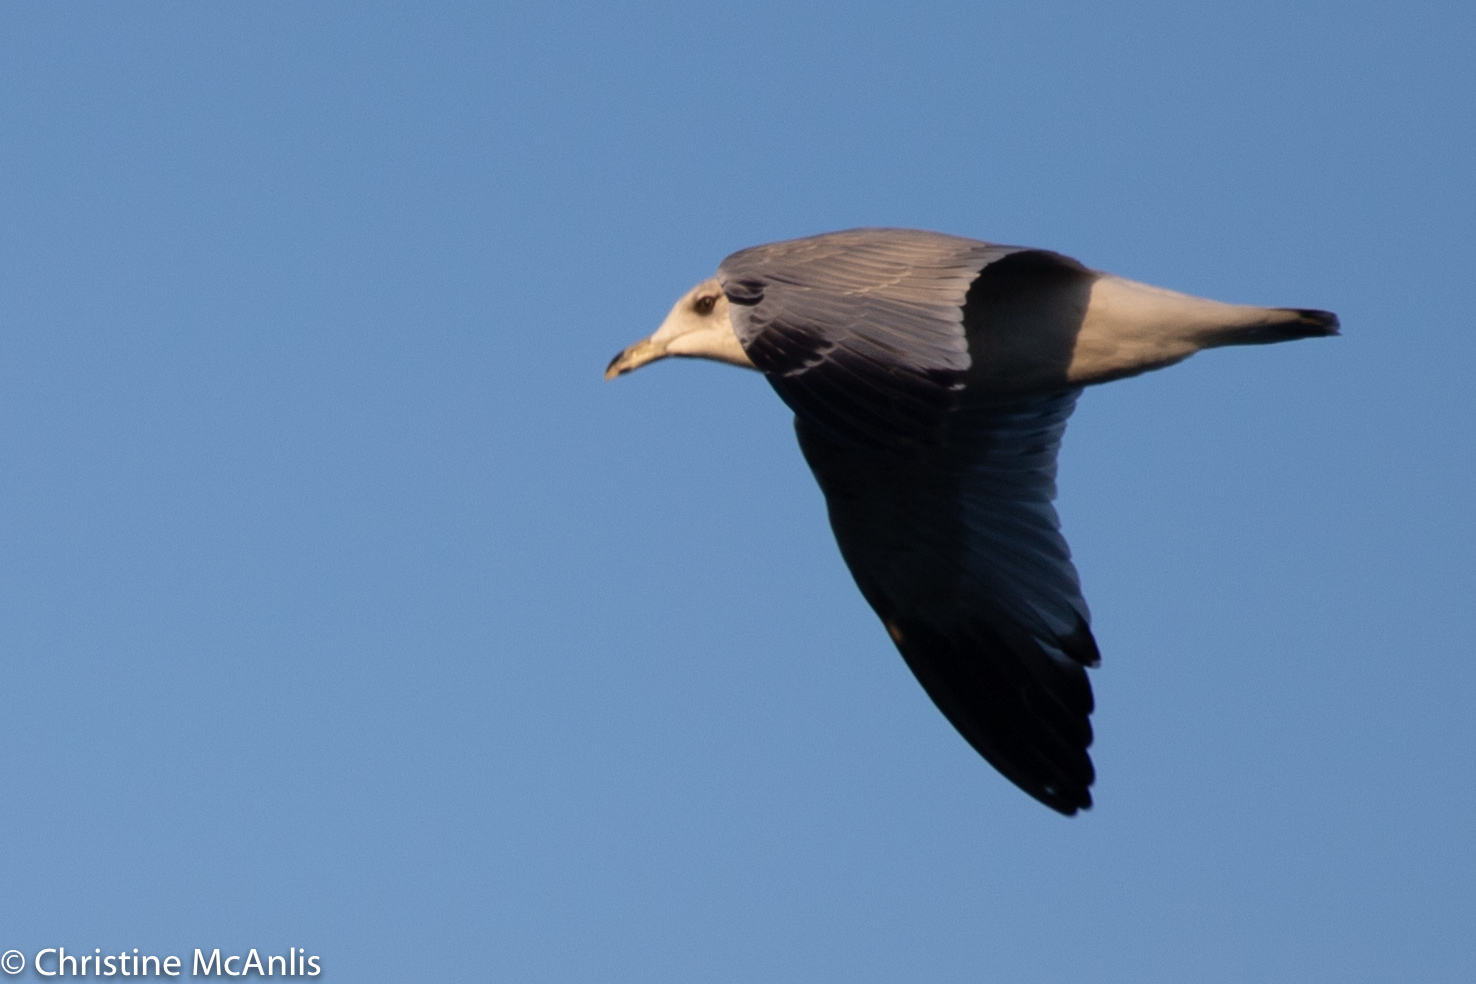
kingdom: Animalia
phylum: Chordata
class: Aves
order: Charadriiformes
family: Laridae
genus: Larus
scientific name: Larus delawarensis
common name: Ring-billed gull
